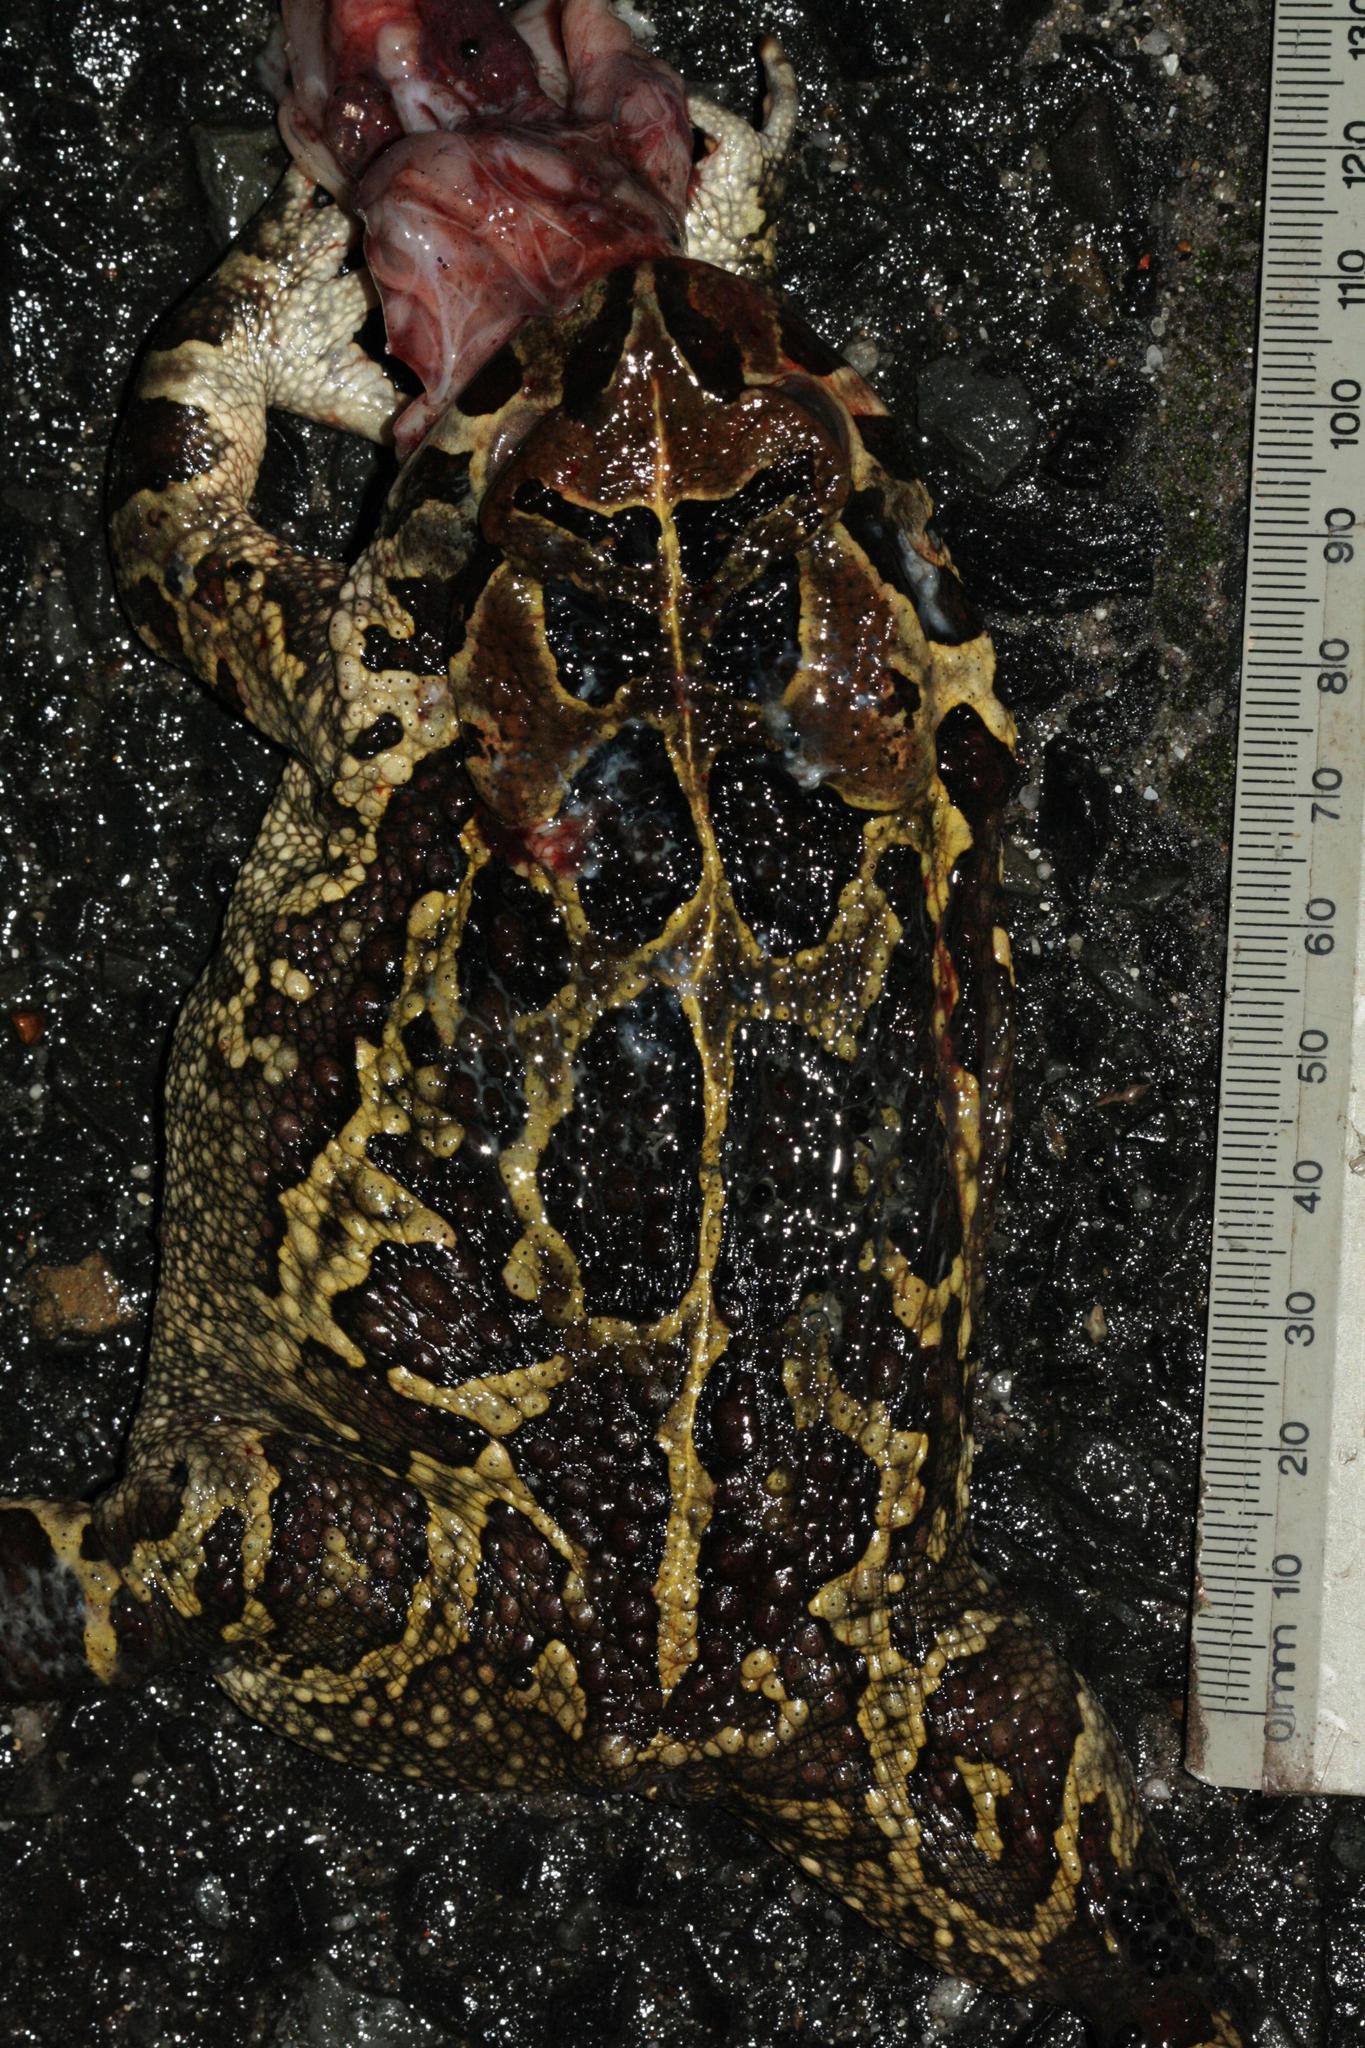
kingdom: Animalia
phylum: Chordata
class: Amphibia
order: Anura
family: Bufonidae
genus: Sclerophrys
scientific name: Sclerophrys pantherina
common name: Panther toad
